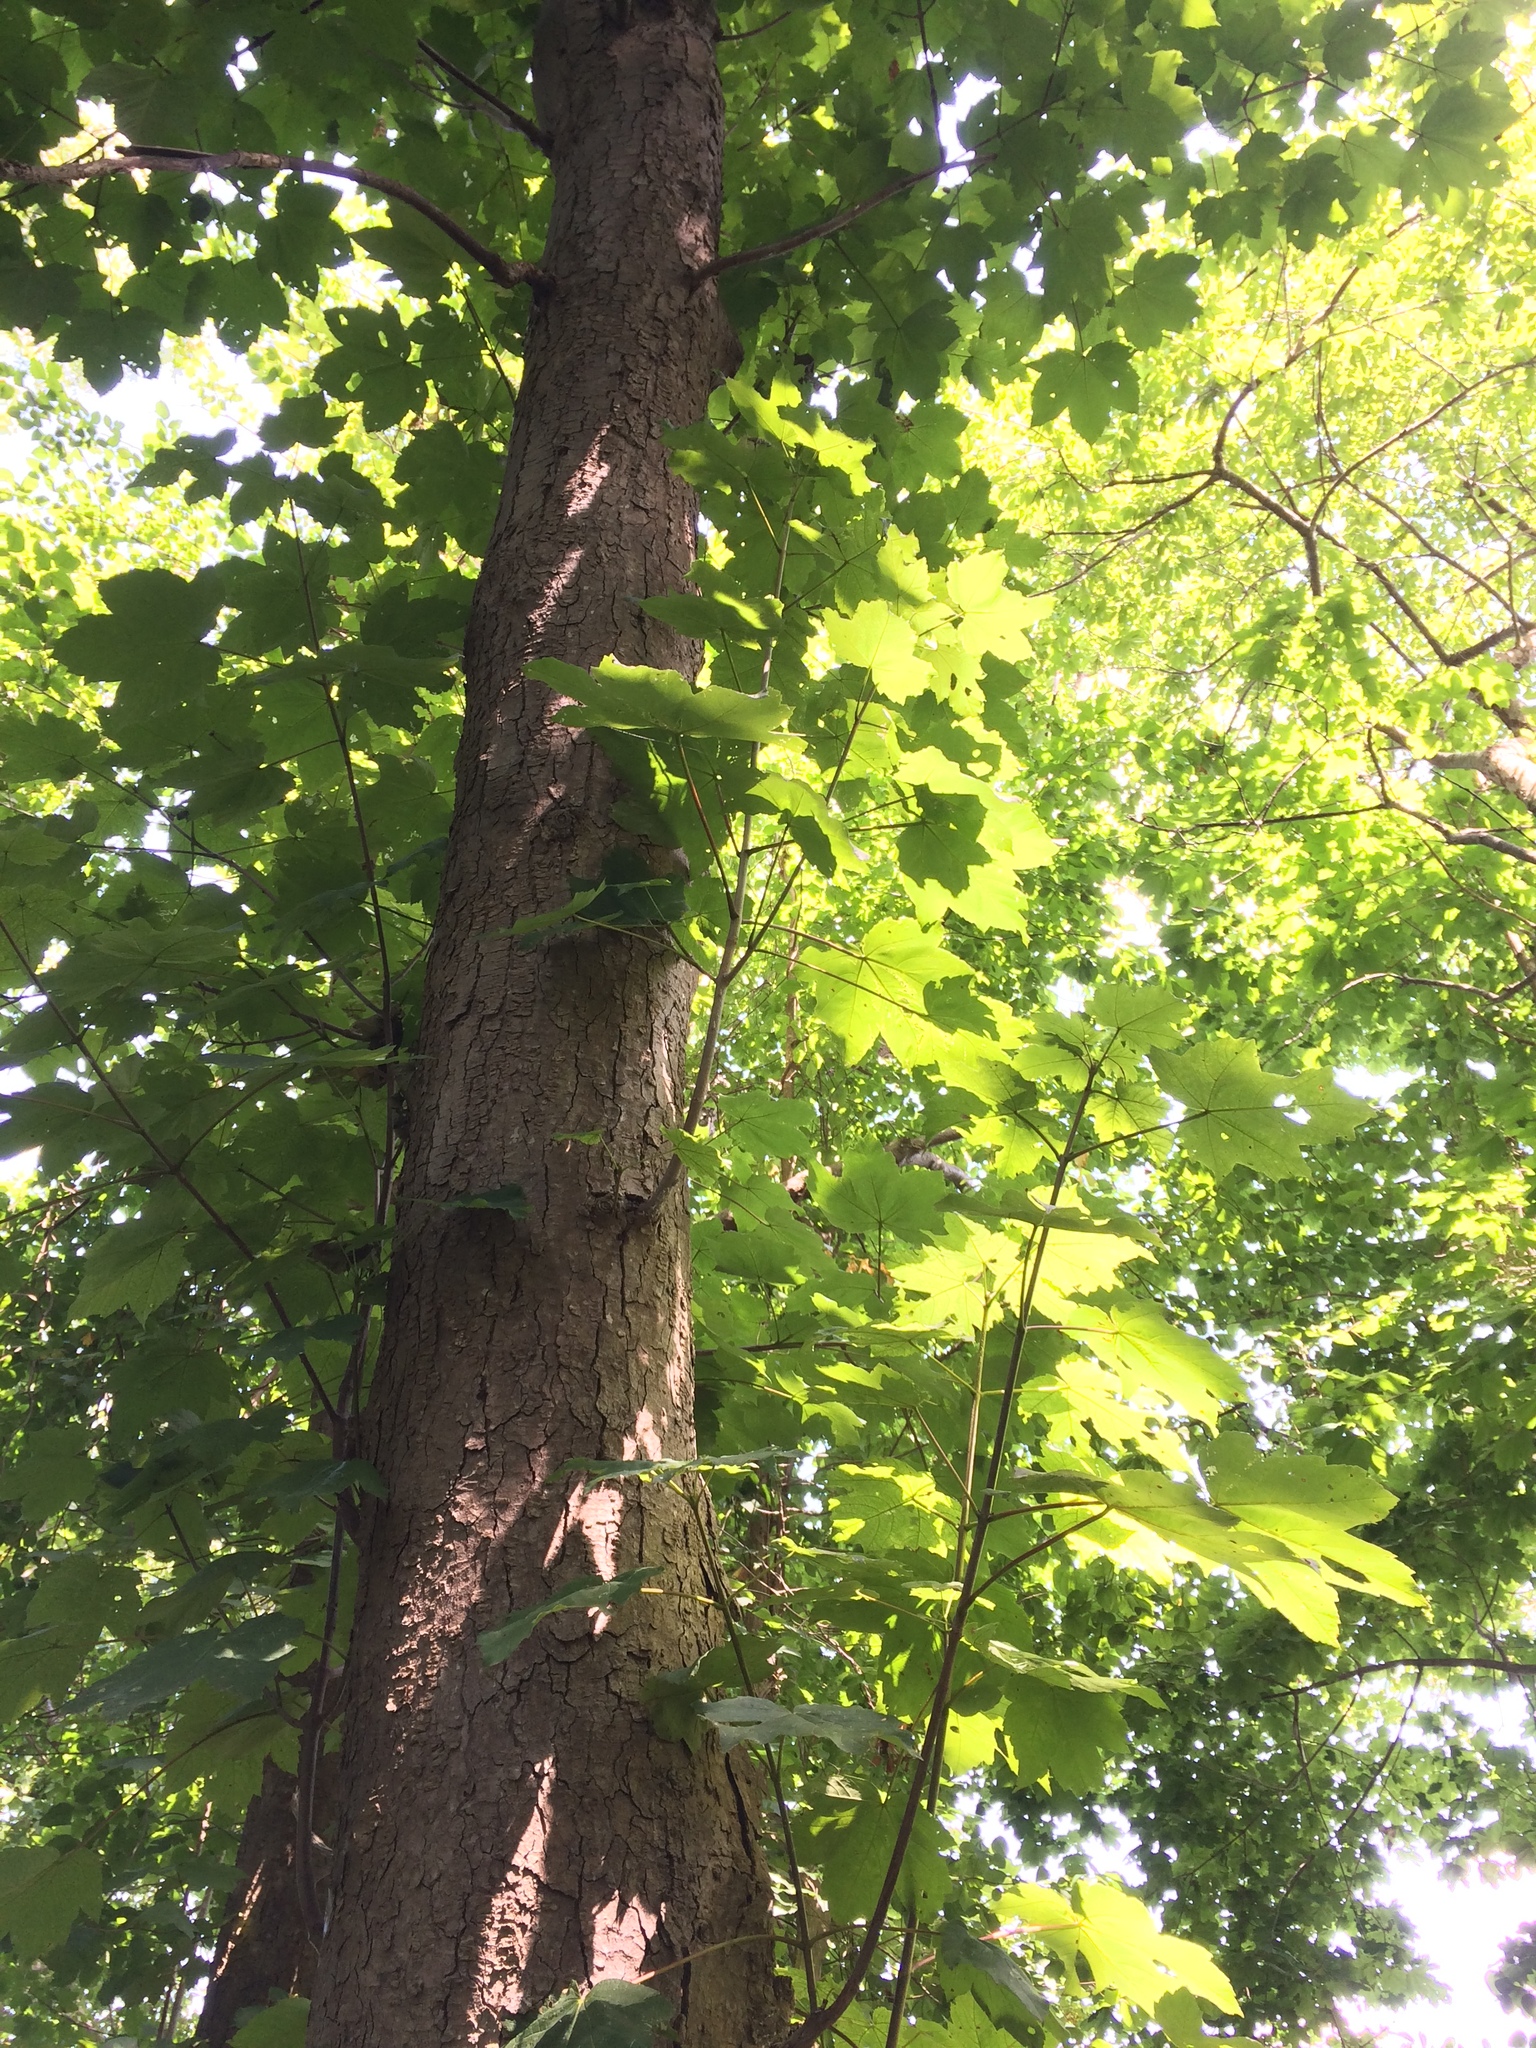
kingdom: Plantae
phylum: Tracheophyta
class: Magnoliopsida
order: Sapindales
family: Sapindaceae
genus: Acer
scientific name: Acer pseudoplatanus
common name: Sycamore
